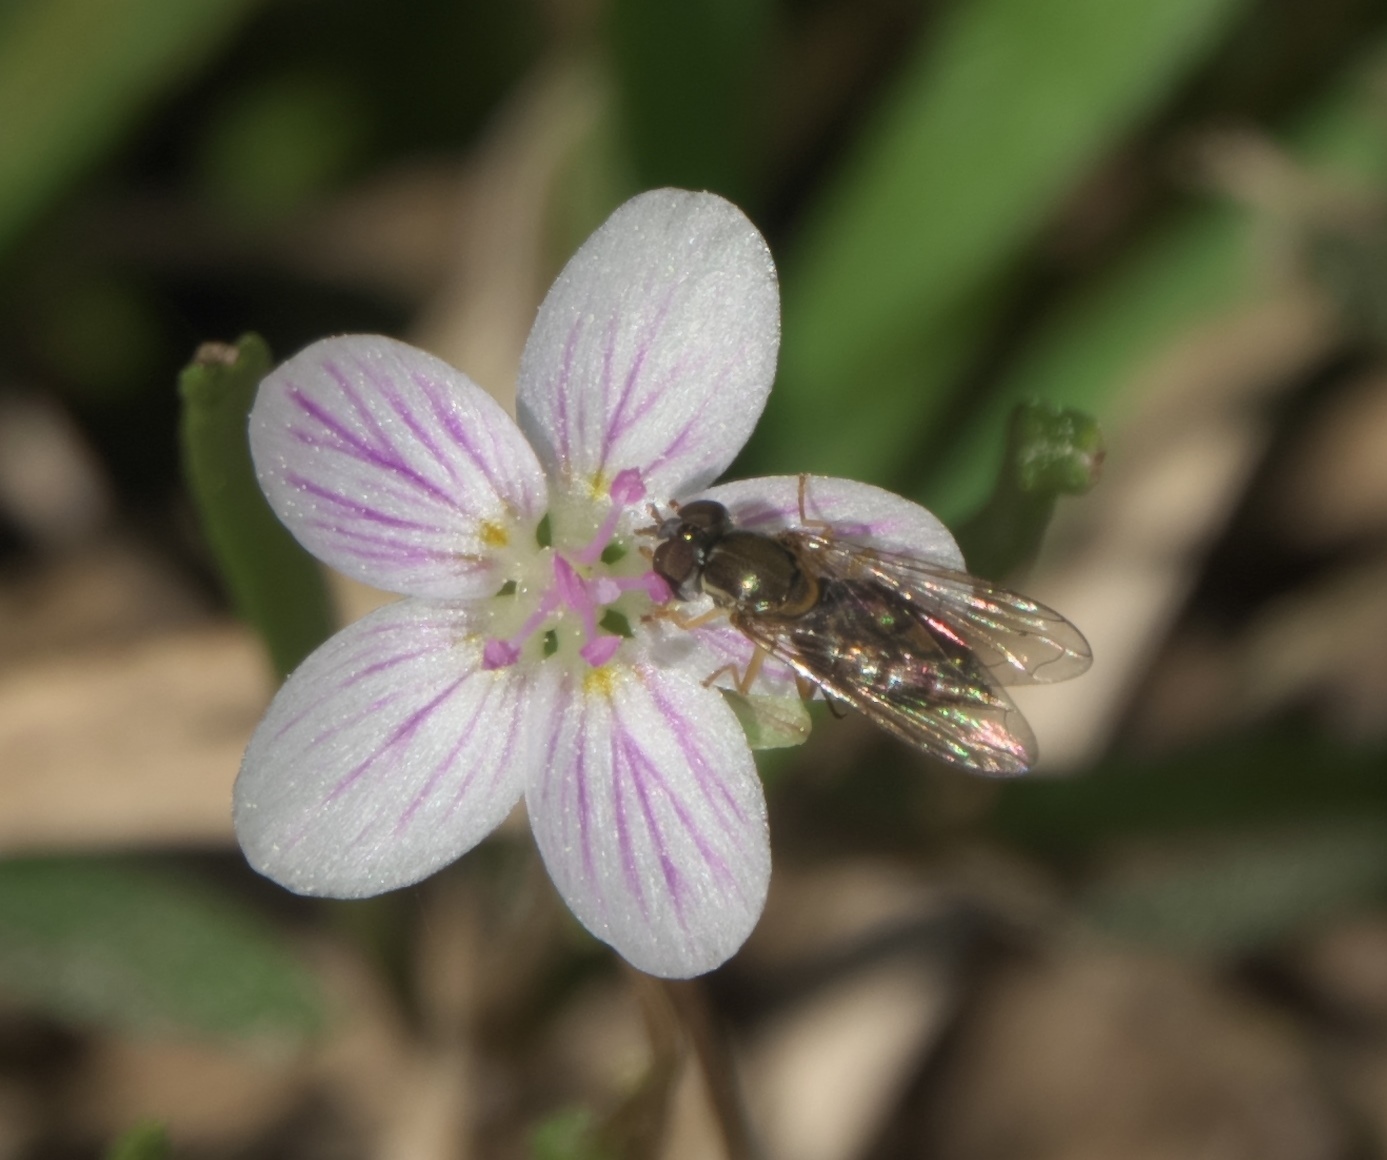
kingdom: Animalia
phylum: Arthropoda
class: Insecta
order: Diptera
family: Syrphidae
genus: Toxomerus
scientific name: Toxomerus marginatus
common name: Syrphid fly
